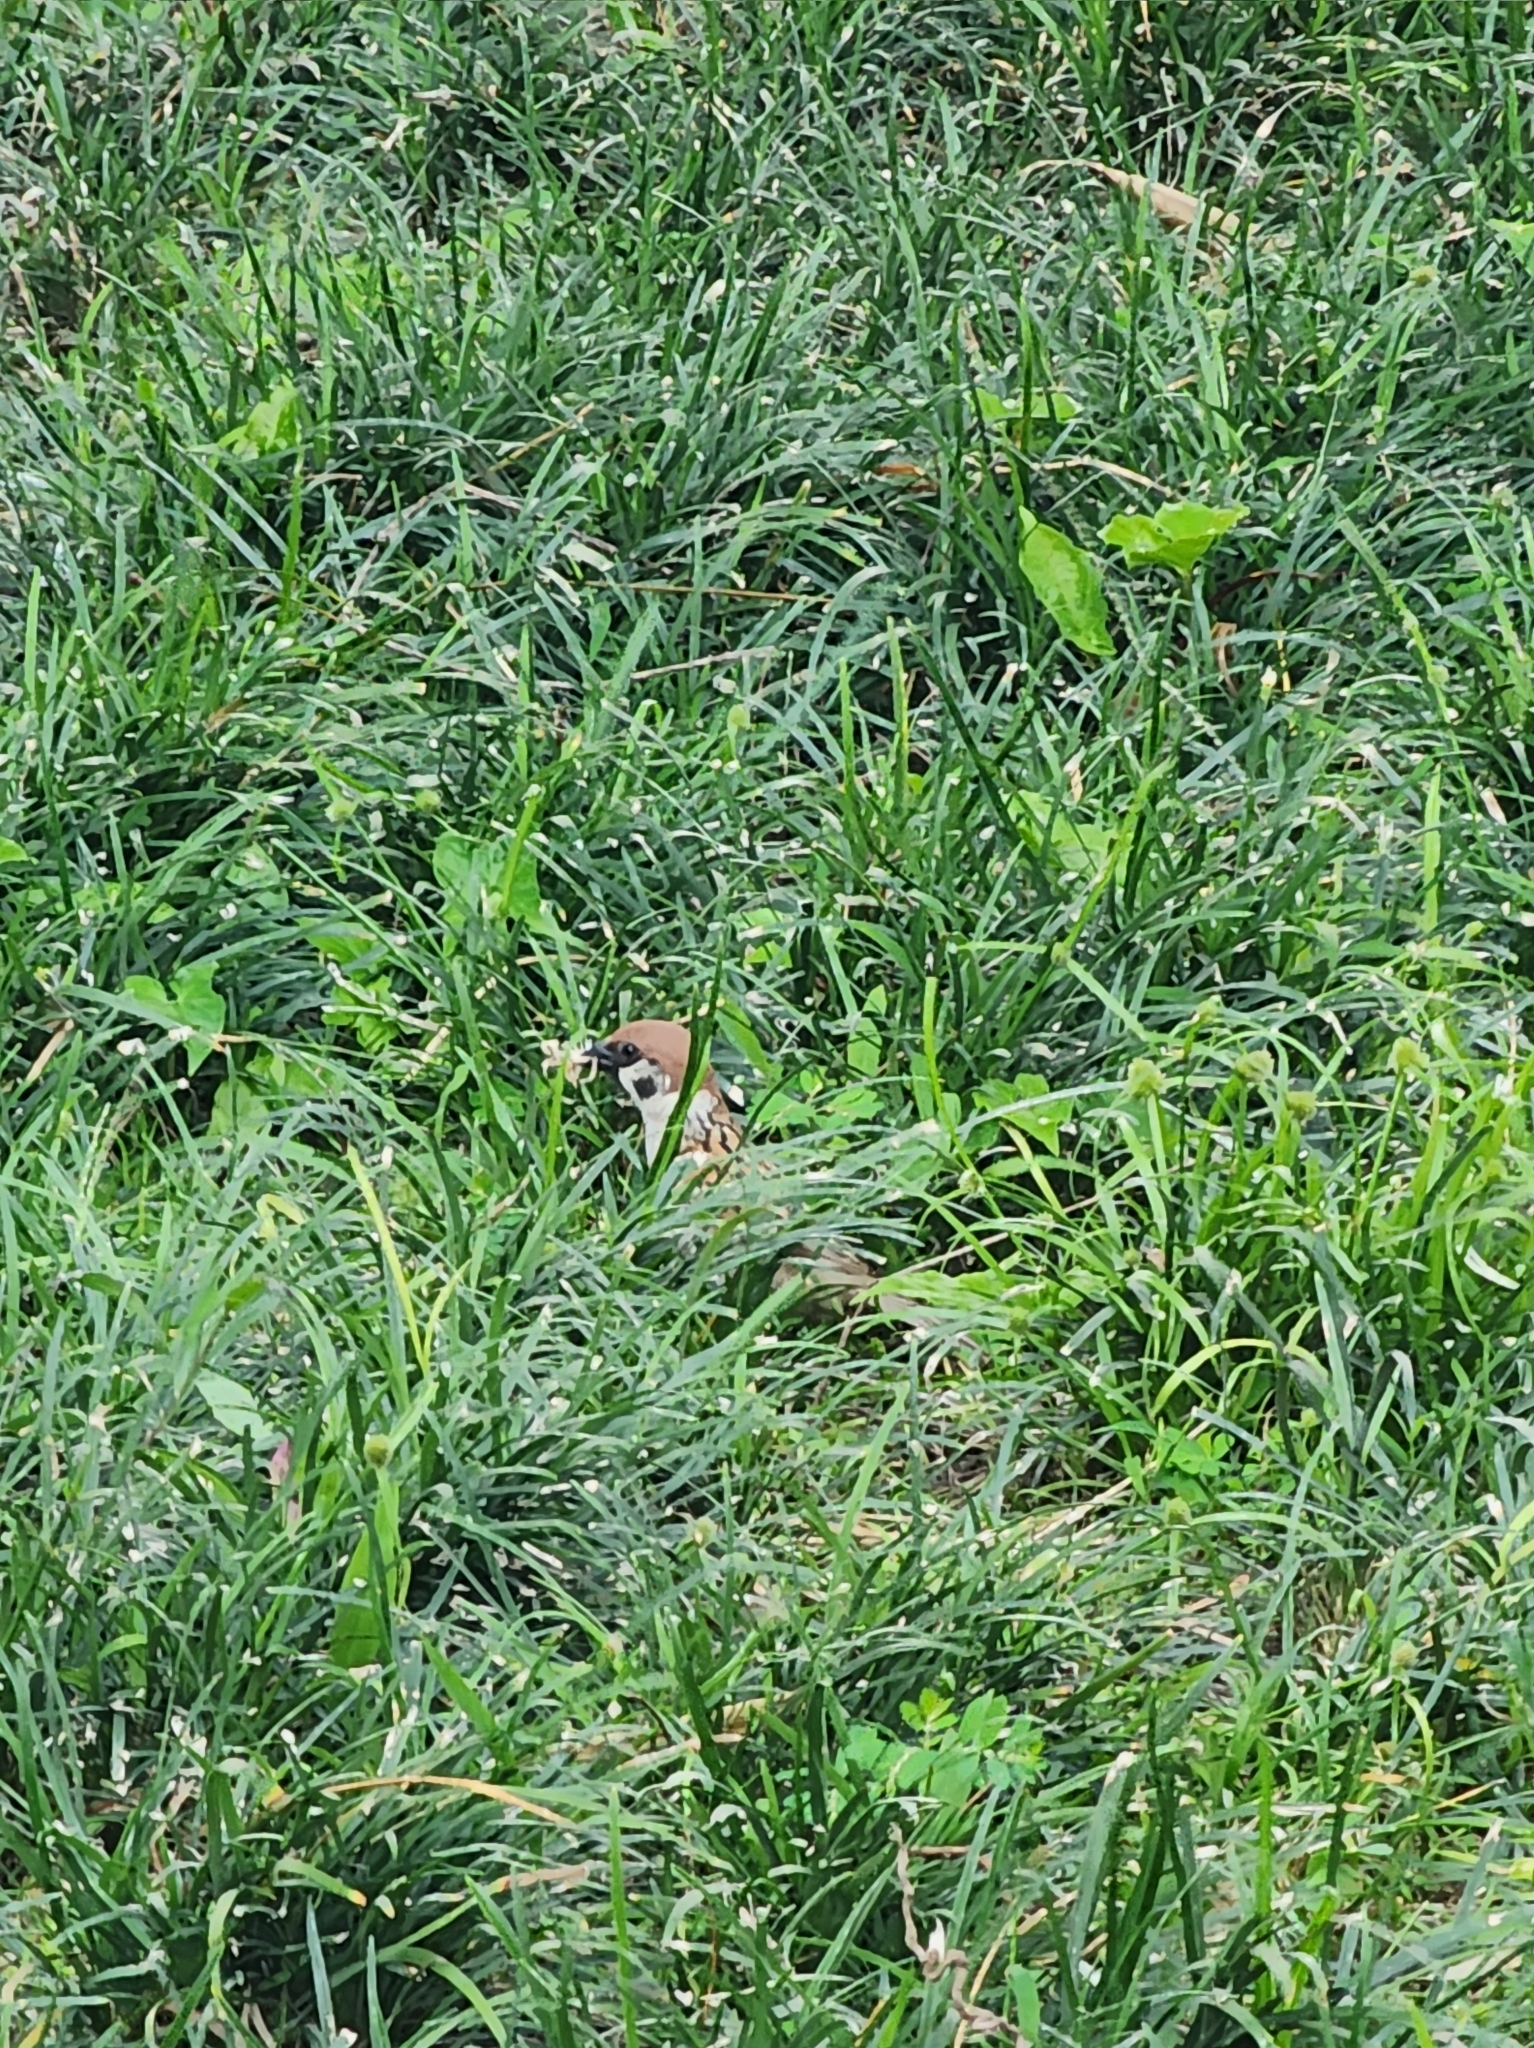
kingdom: Animalia
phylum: Chordata
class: Aves
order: Passeriformes
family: Passeridae
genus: Passer
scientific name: Passer montanus
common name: Eurasian tree sparrow
